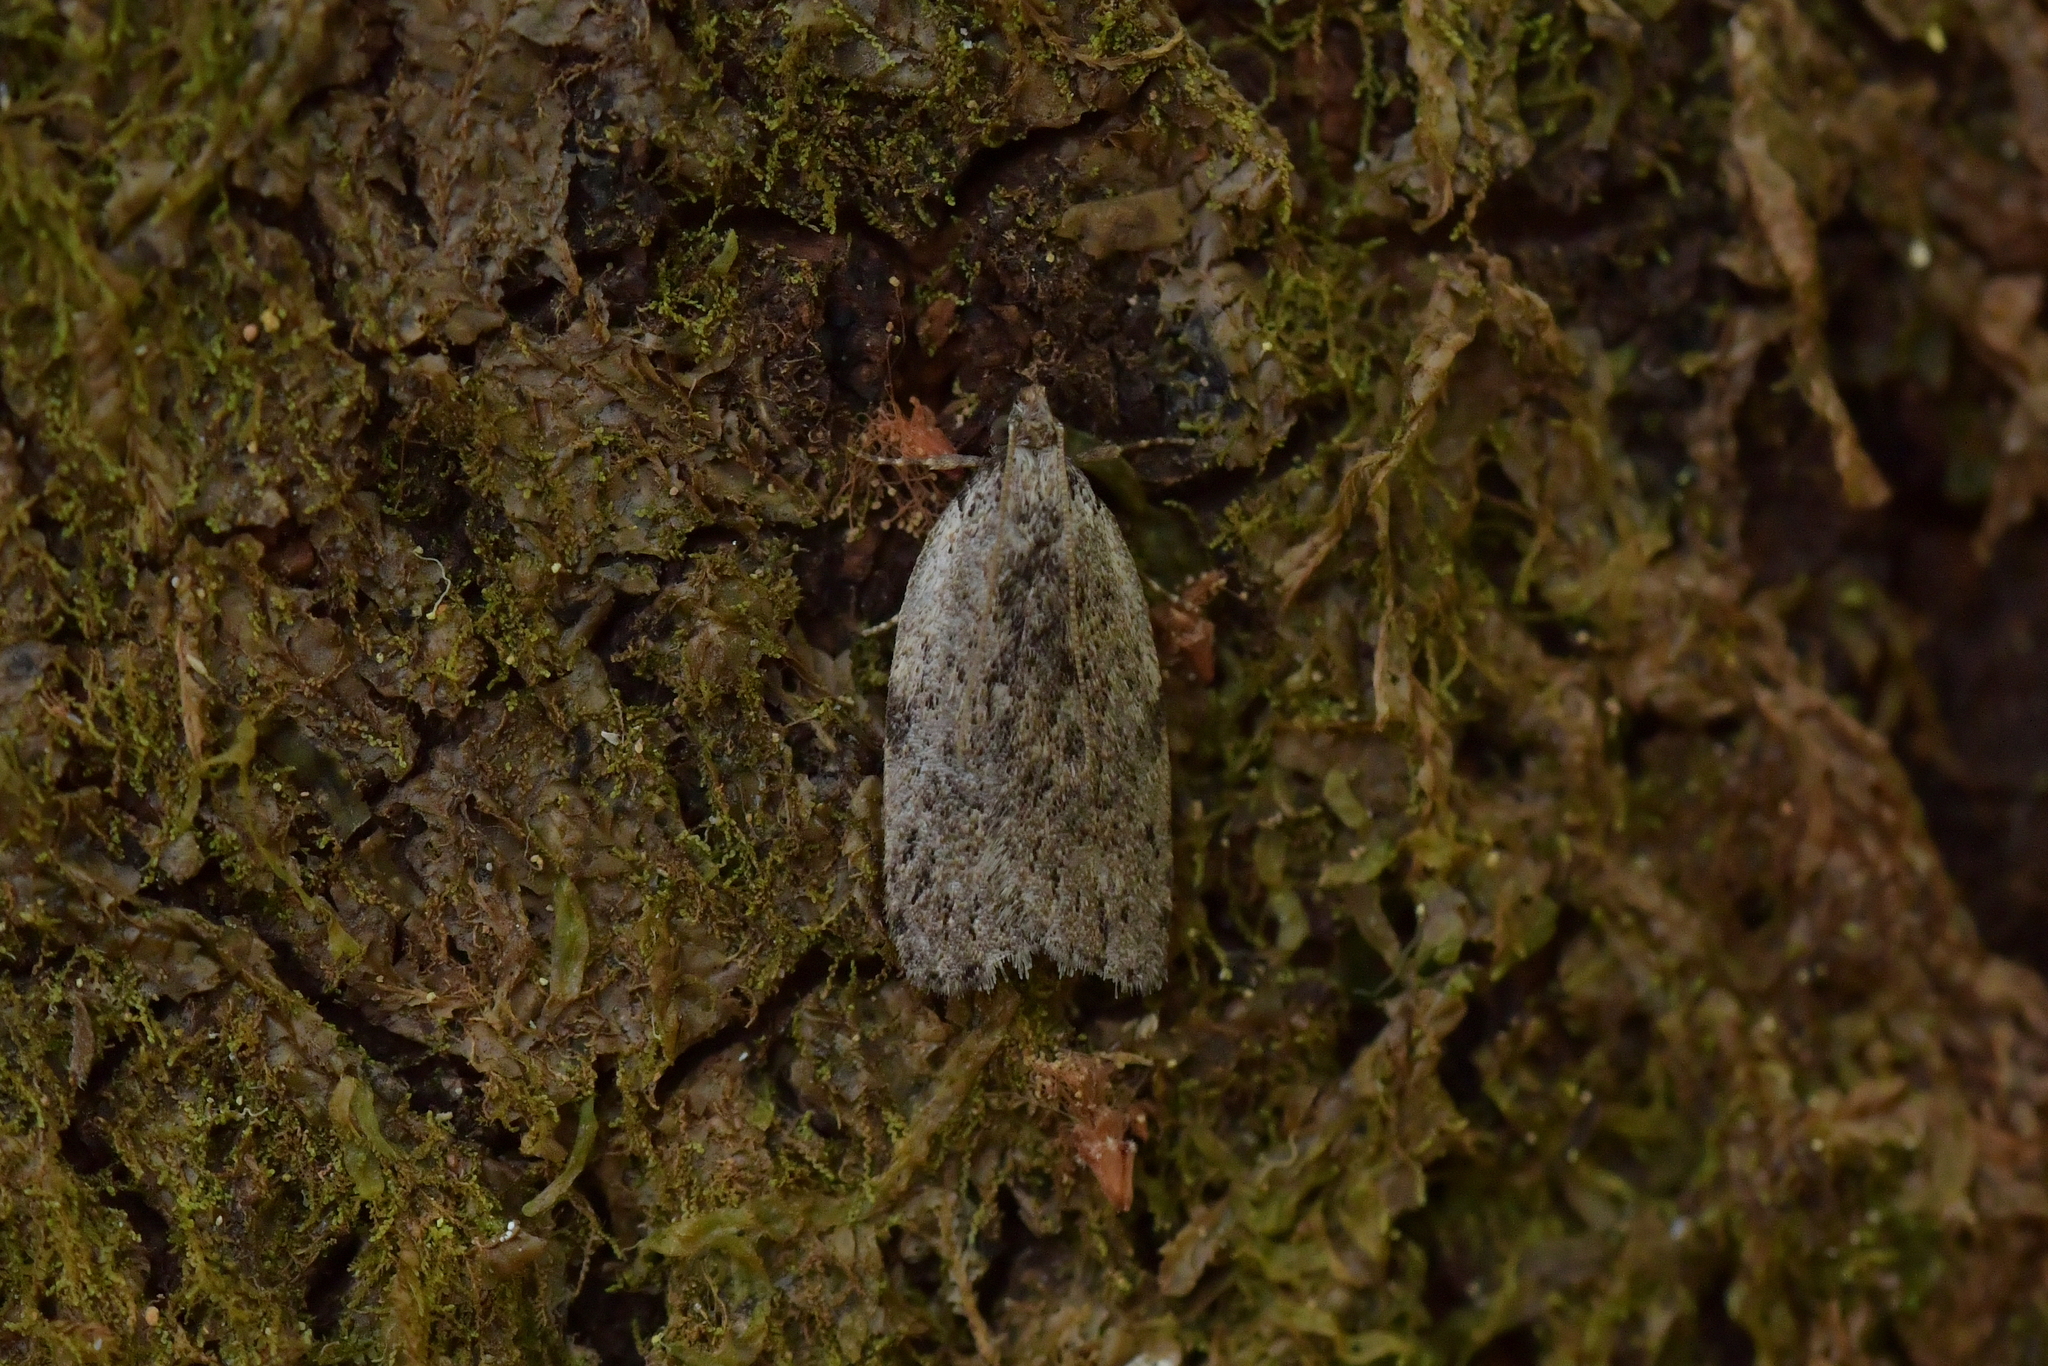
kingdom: Animalia
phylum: Arthropoda
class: Insecta
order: Lepidoptera
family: Depressariidae
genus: Phaeosaces
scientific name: Phaeosaces compsotypa
